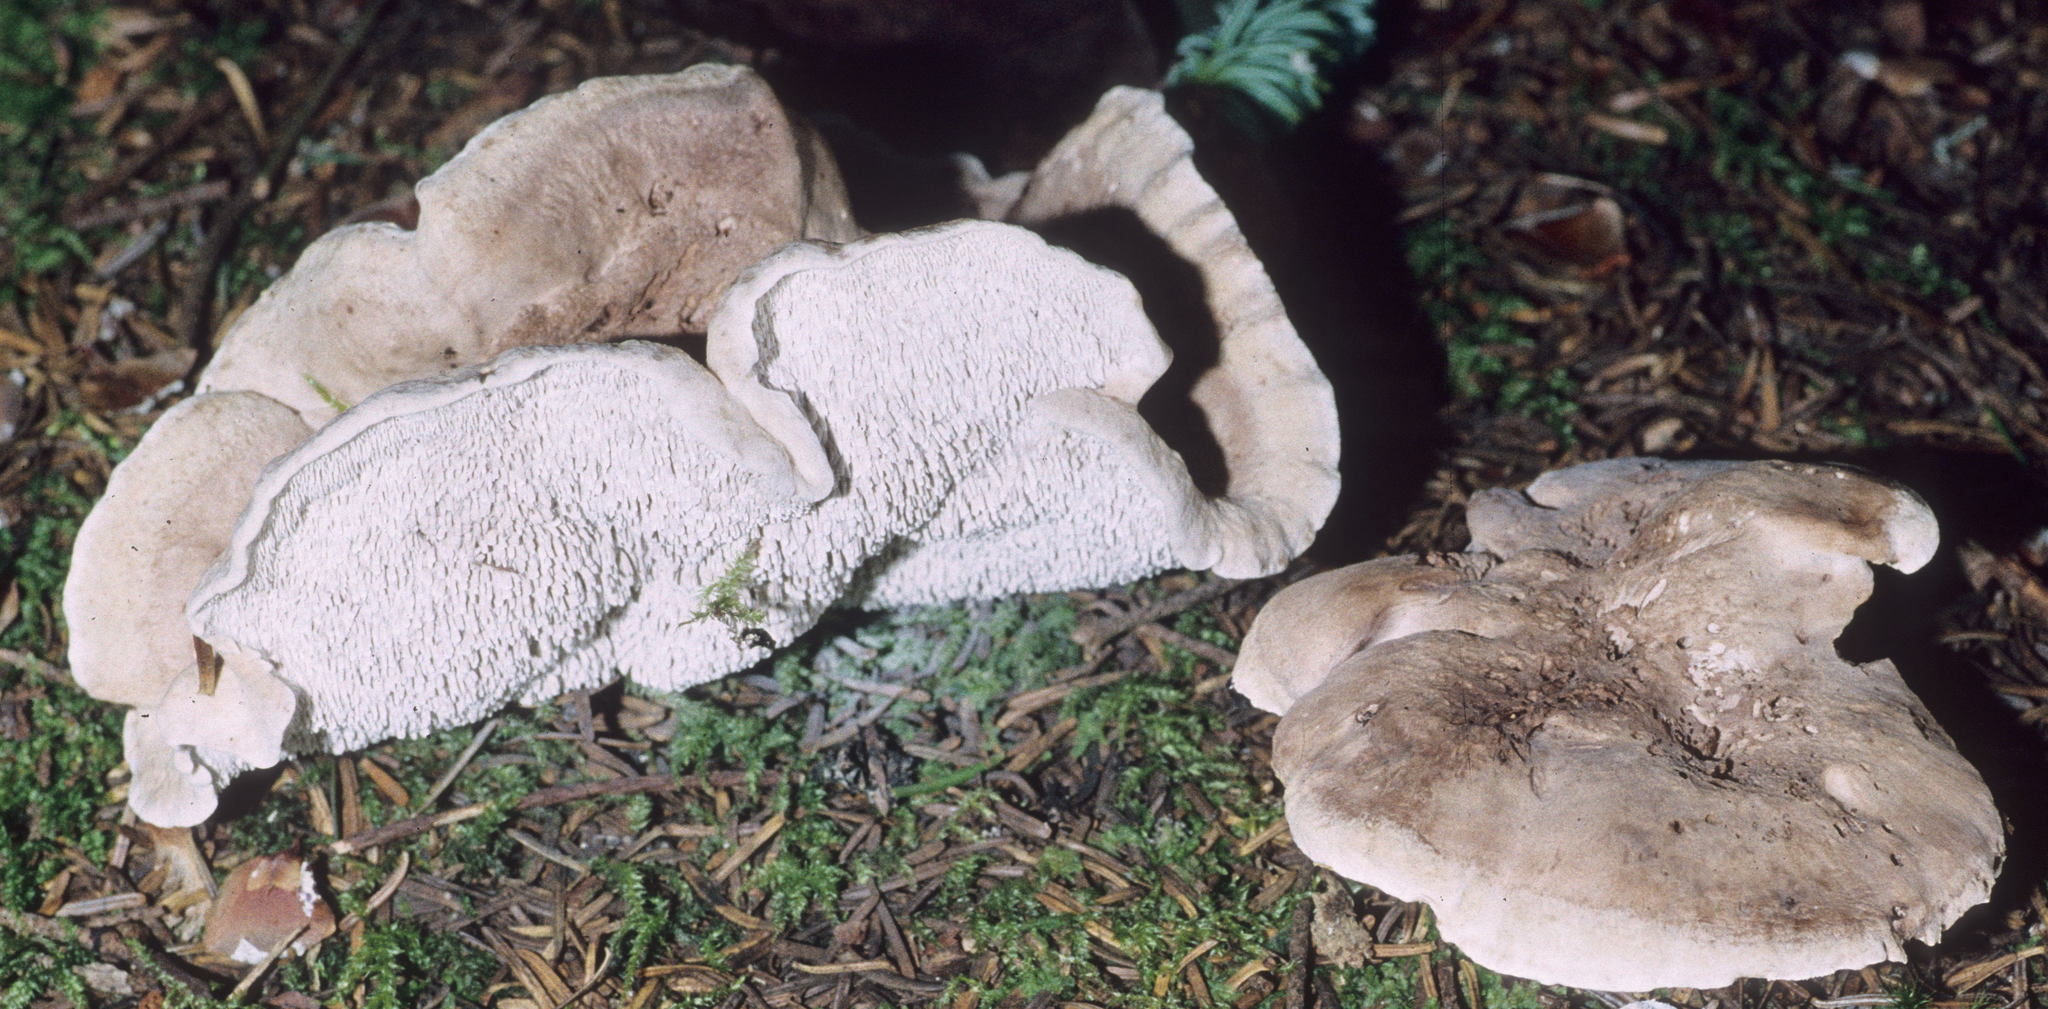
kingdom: Fungi
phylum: Basidiomycota
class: Agaricomycetes
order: Thelephorales
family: Thelephoraceae
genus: Phellodon
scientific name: Phellodon violascens
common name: Spruce tooth
